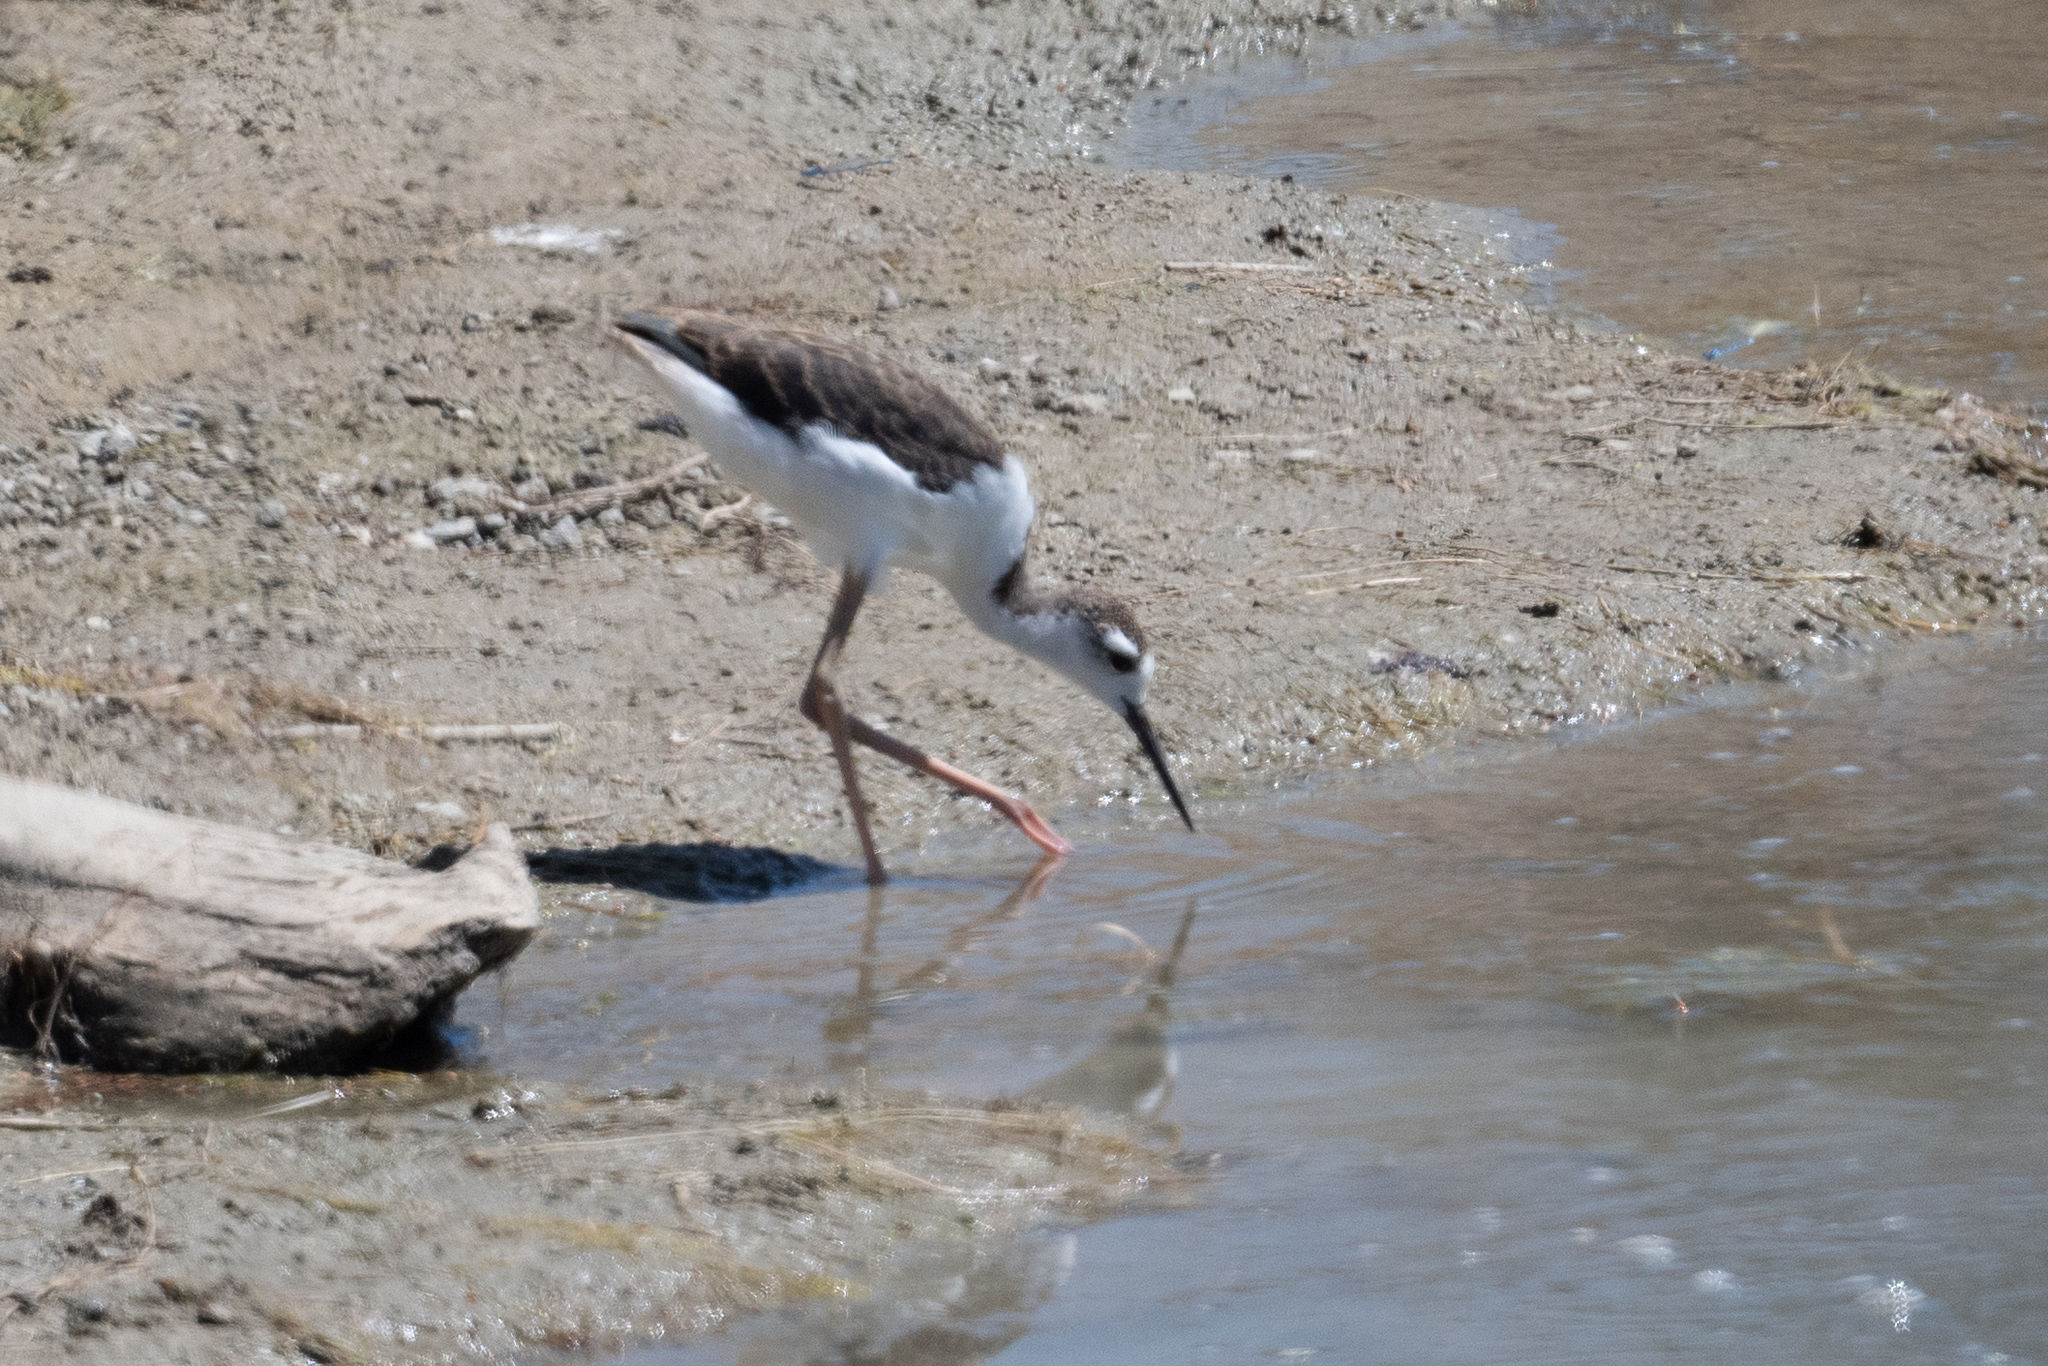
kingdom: Animalia
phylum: Chordata
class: Aves
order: Charadriiformes
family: Recurvirostridae
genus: Himantopus
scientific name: Himantopus mexicanus
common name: Black-necked stilt
